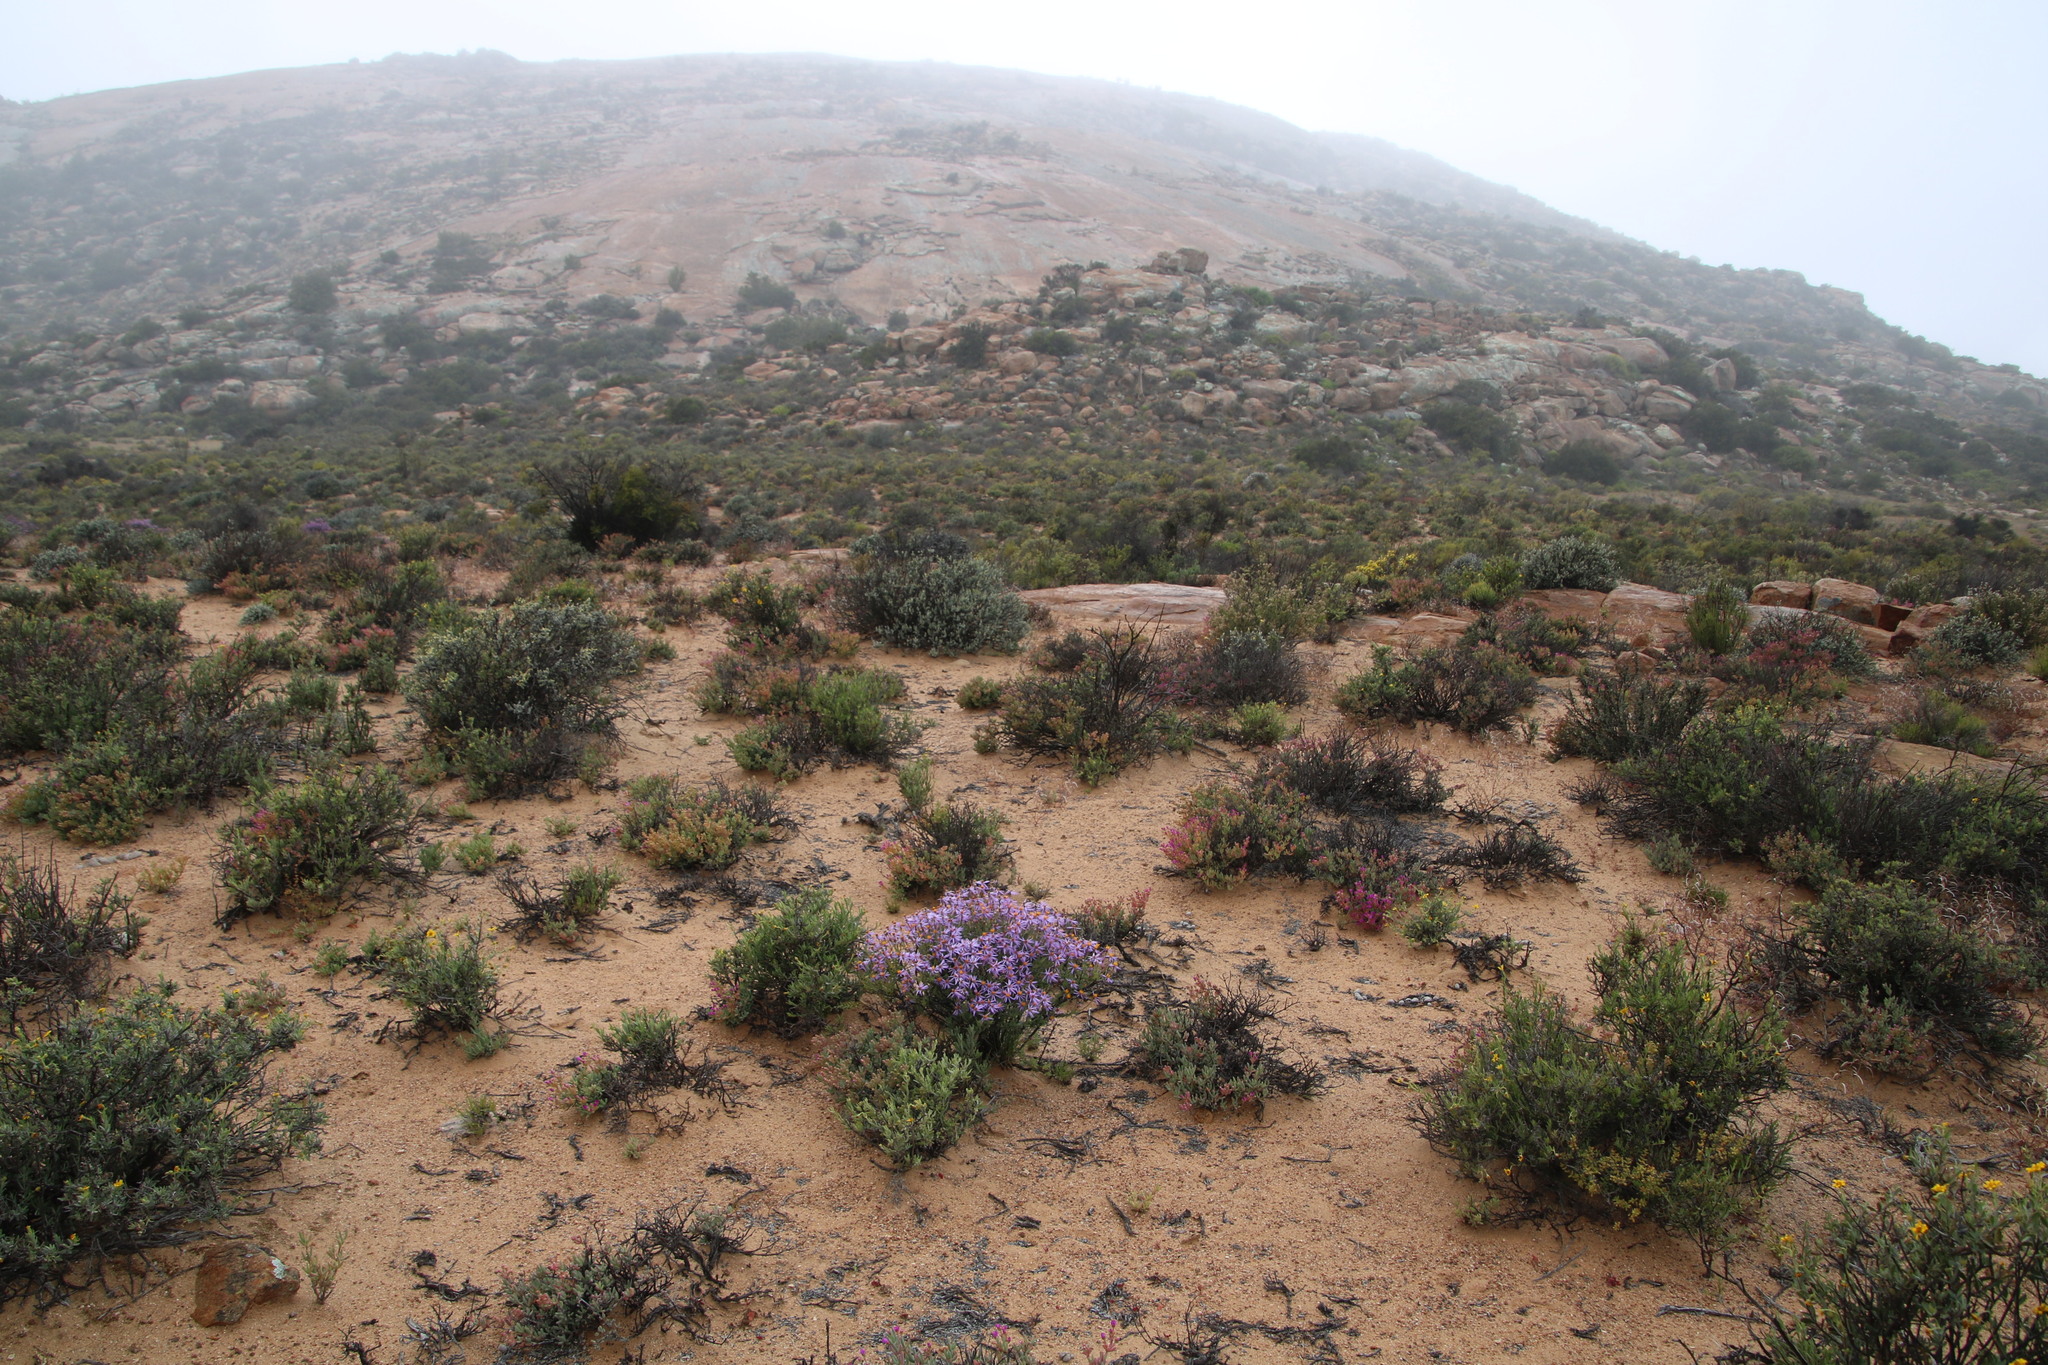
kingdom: Plantae
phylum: Tracheophyta
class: Magnoliopsida
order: Asterales
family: Asteraceae
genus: Felicia
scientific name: Felicia brevifolia
